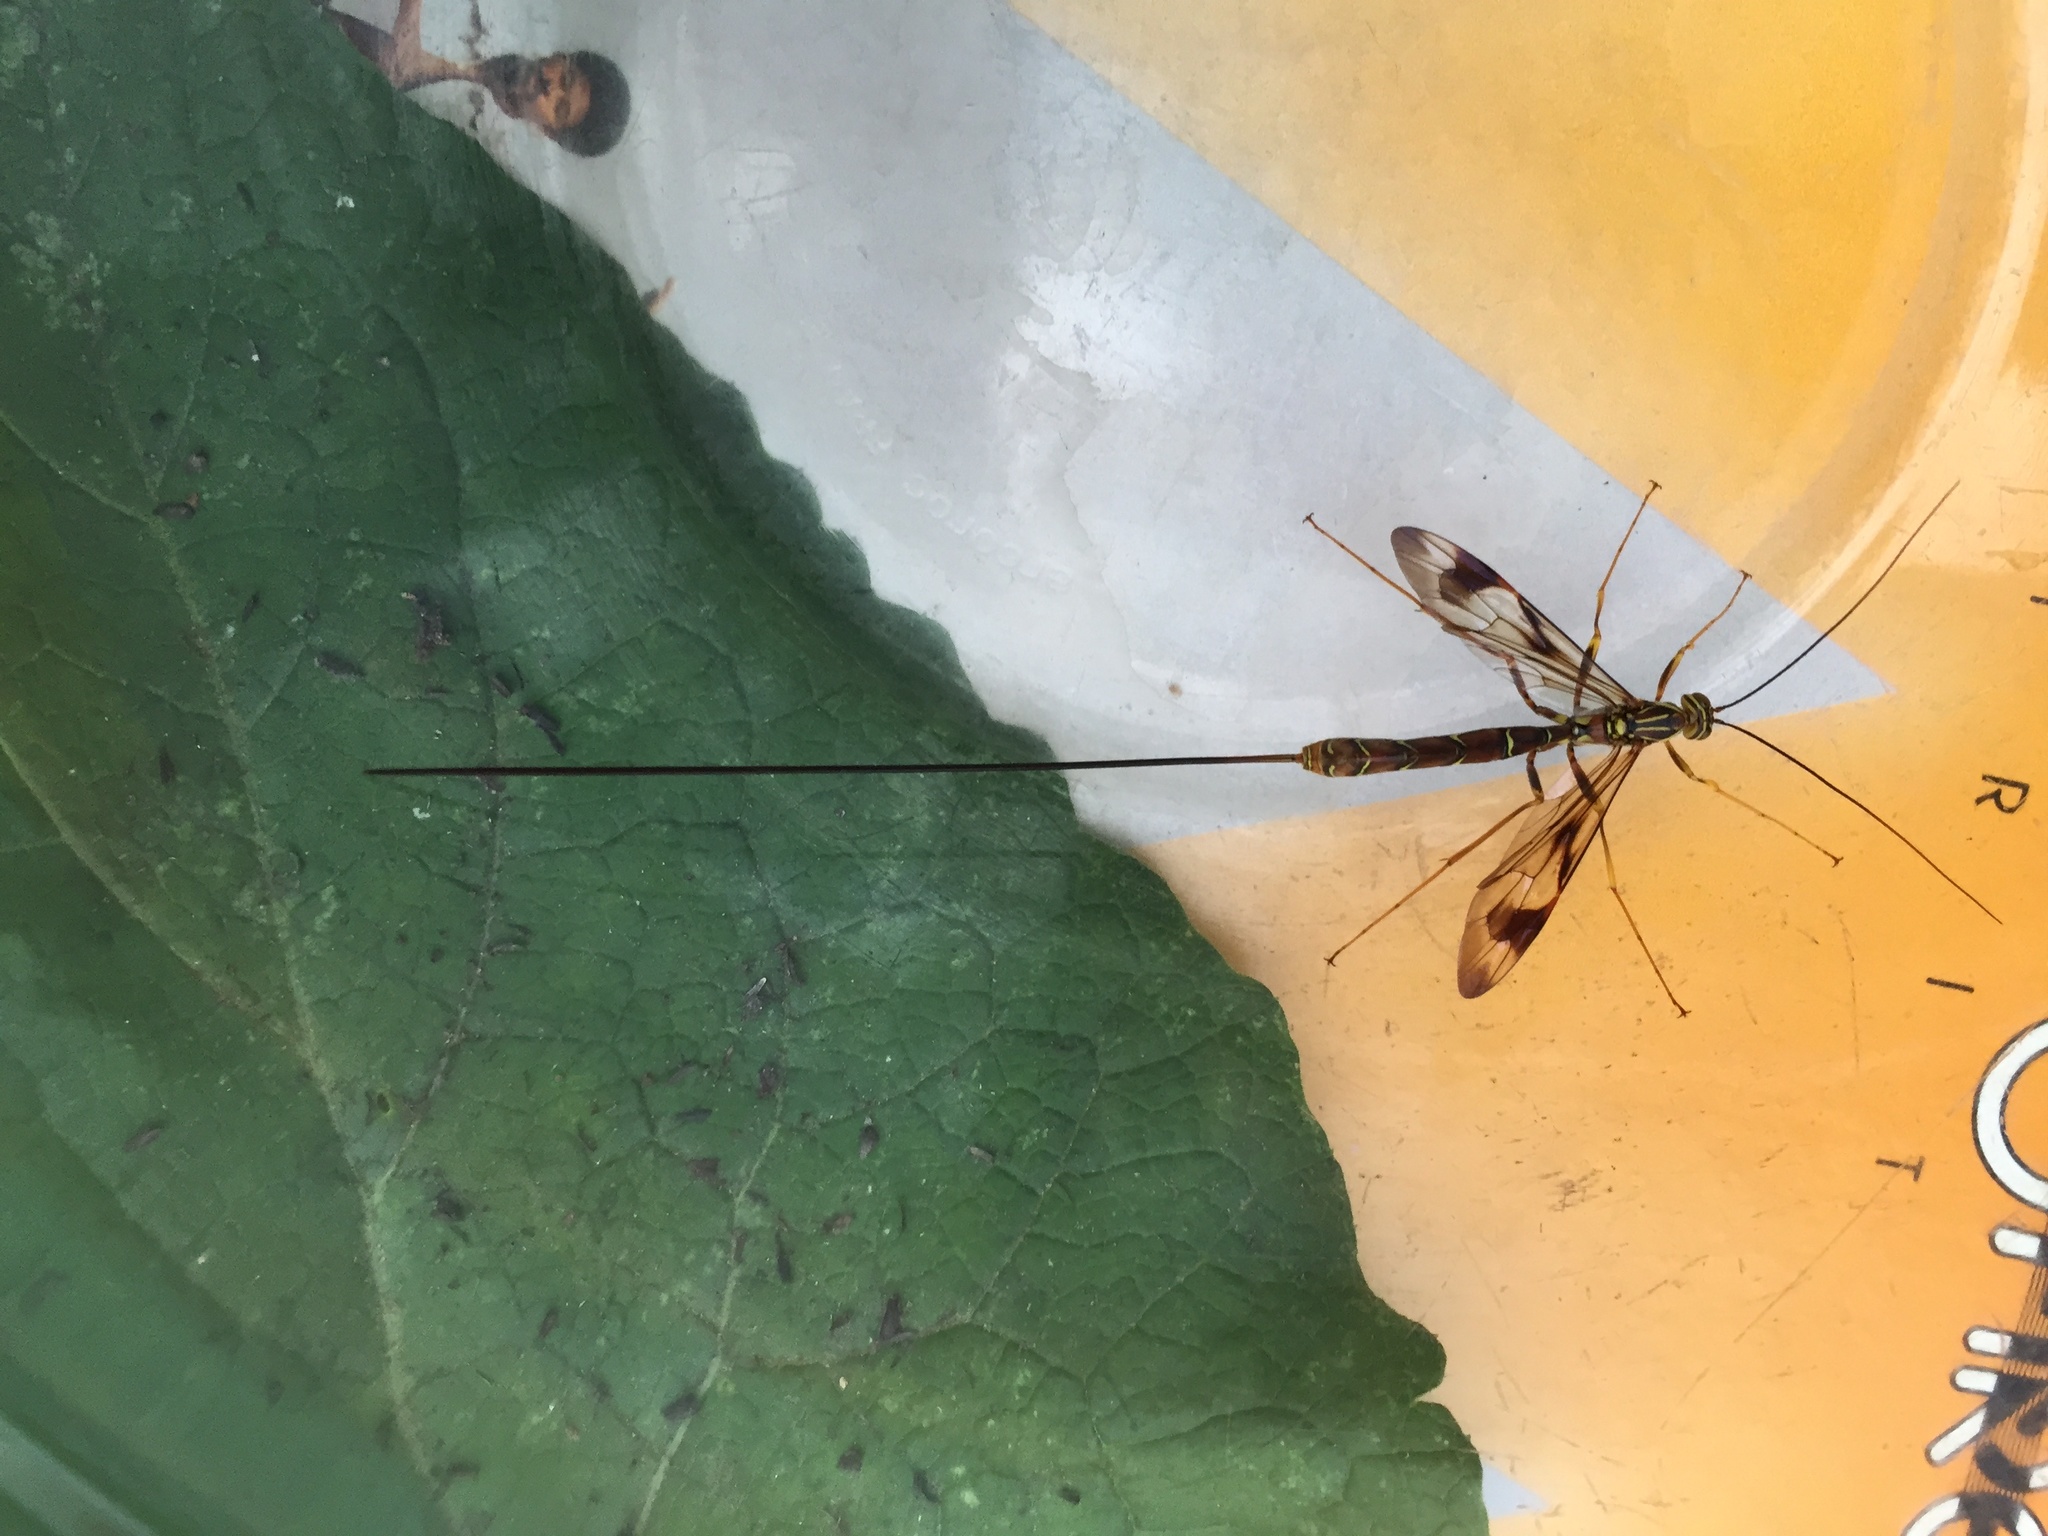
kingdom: Animalia
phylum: Arthropoda
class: Insecta
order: Hymenoptera
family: Ichneumonidae
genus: Megarhyssa
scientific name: Megarhyssa macrura
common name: Long-tailed giant ichneumonid wasp
